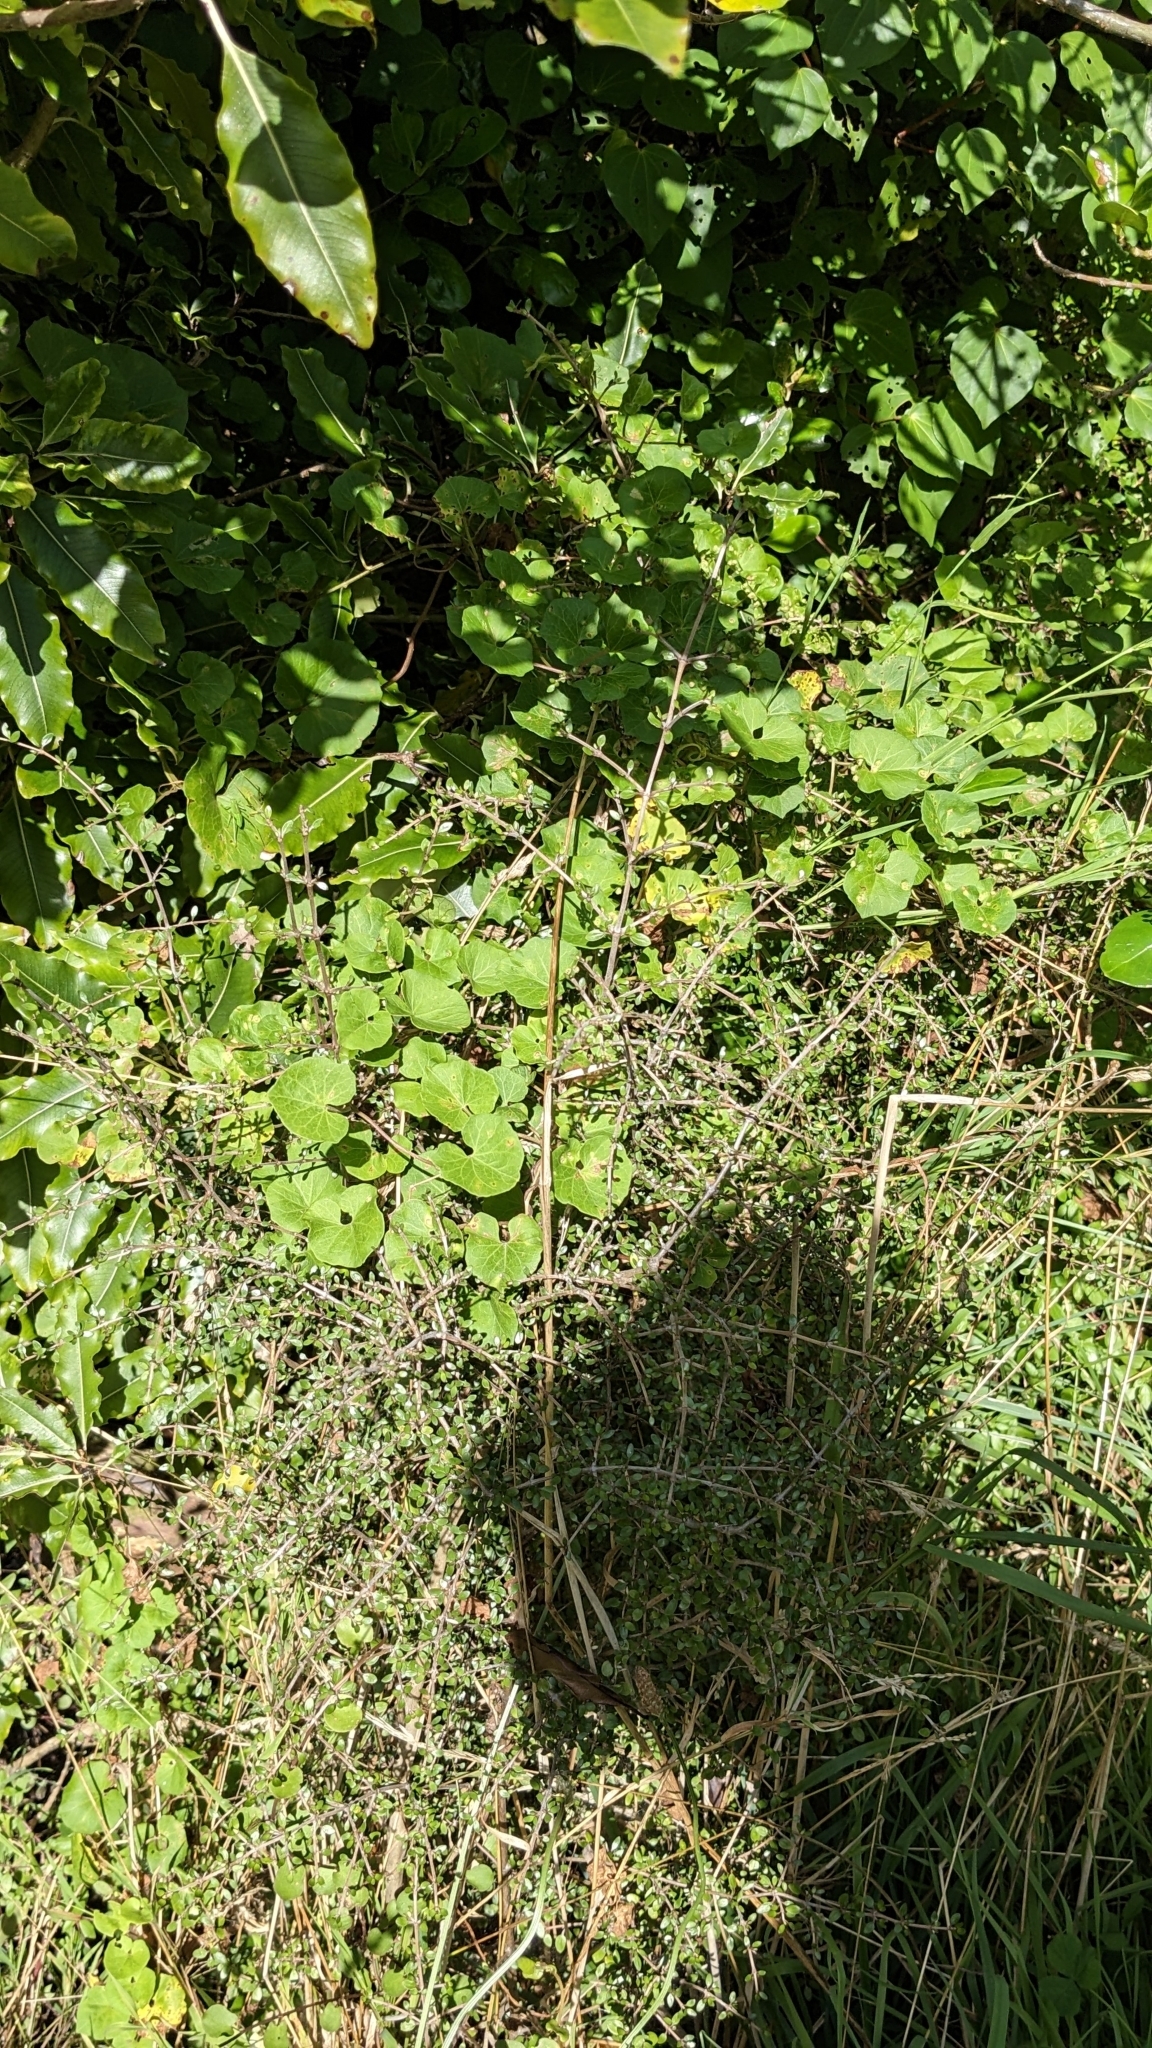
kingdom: Plantae
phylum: Tracheophyta
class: Magnoliopsida
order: Solanales
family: Convolvulaceae
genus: Calystegia
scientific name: Calystegia
